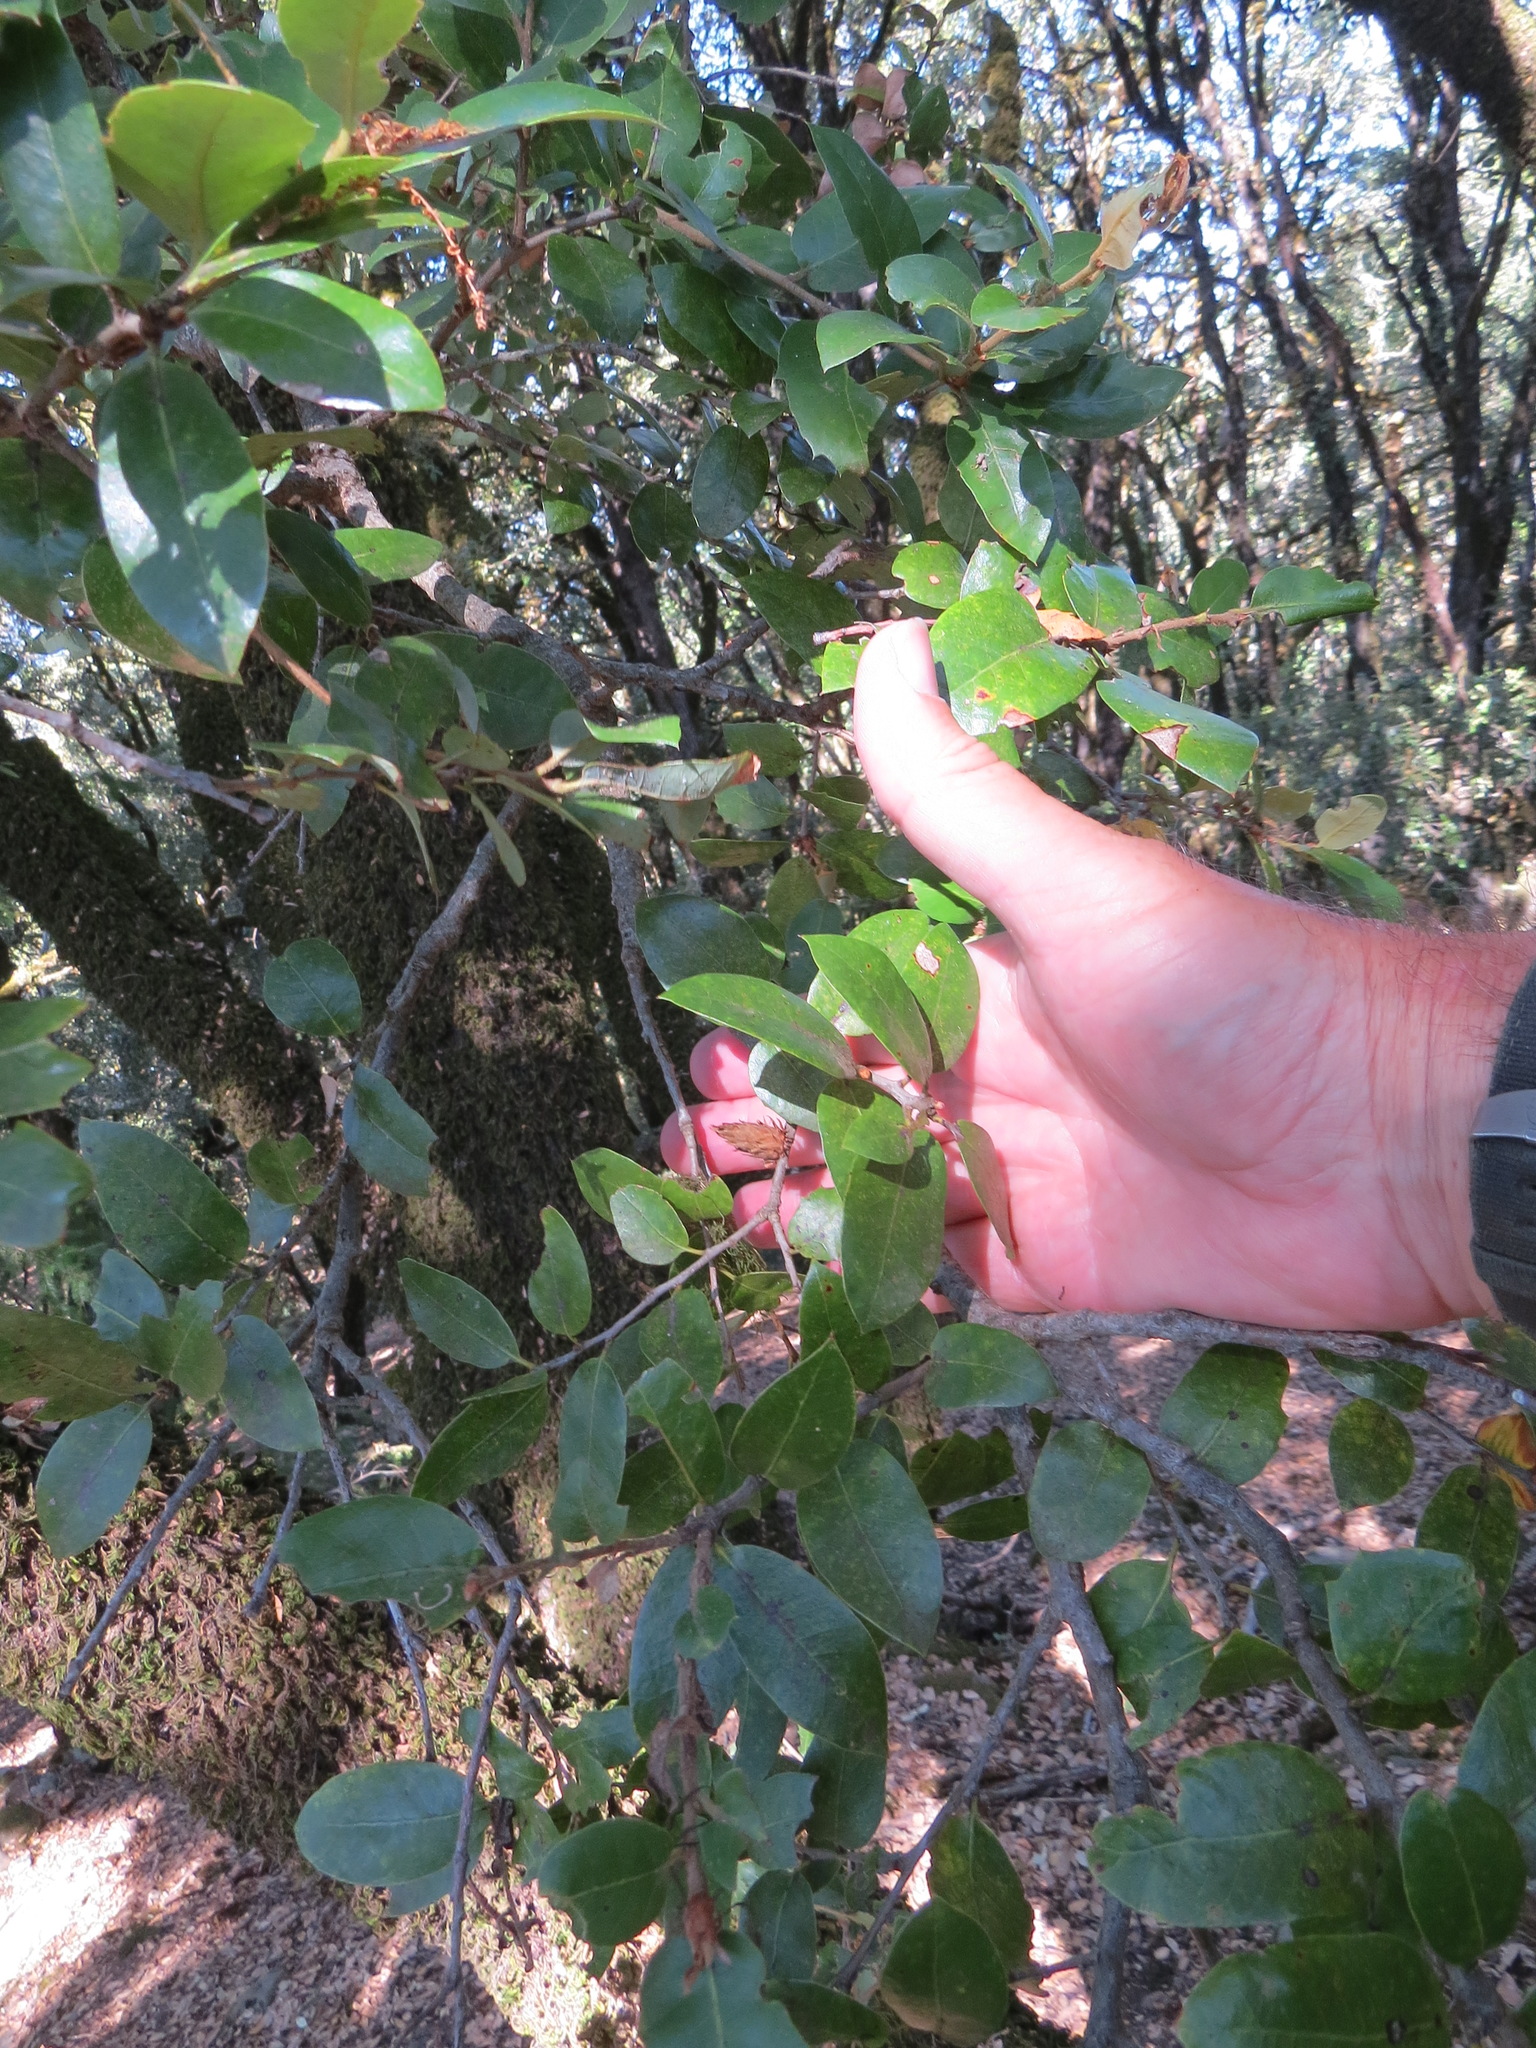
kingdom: Animalia
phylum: Arthropoda
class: Insecta
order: Hymenoptera
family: Cynipidae
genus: Andricus
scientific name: Andricus
